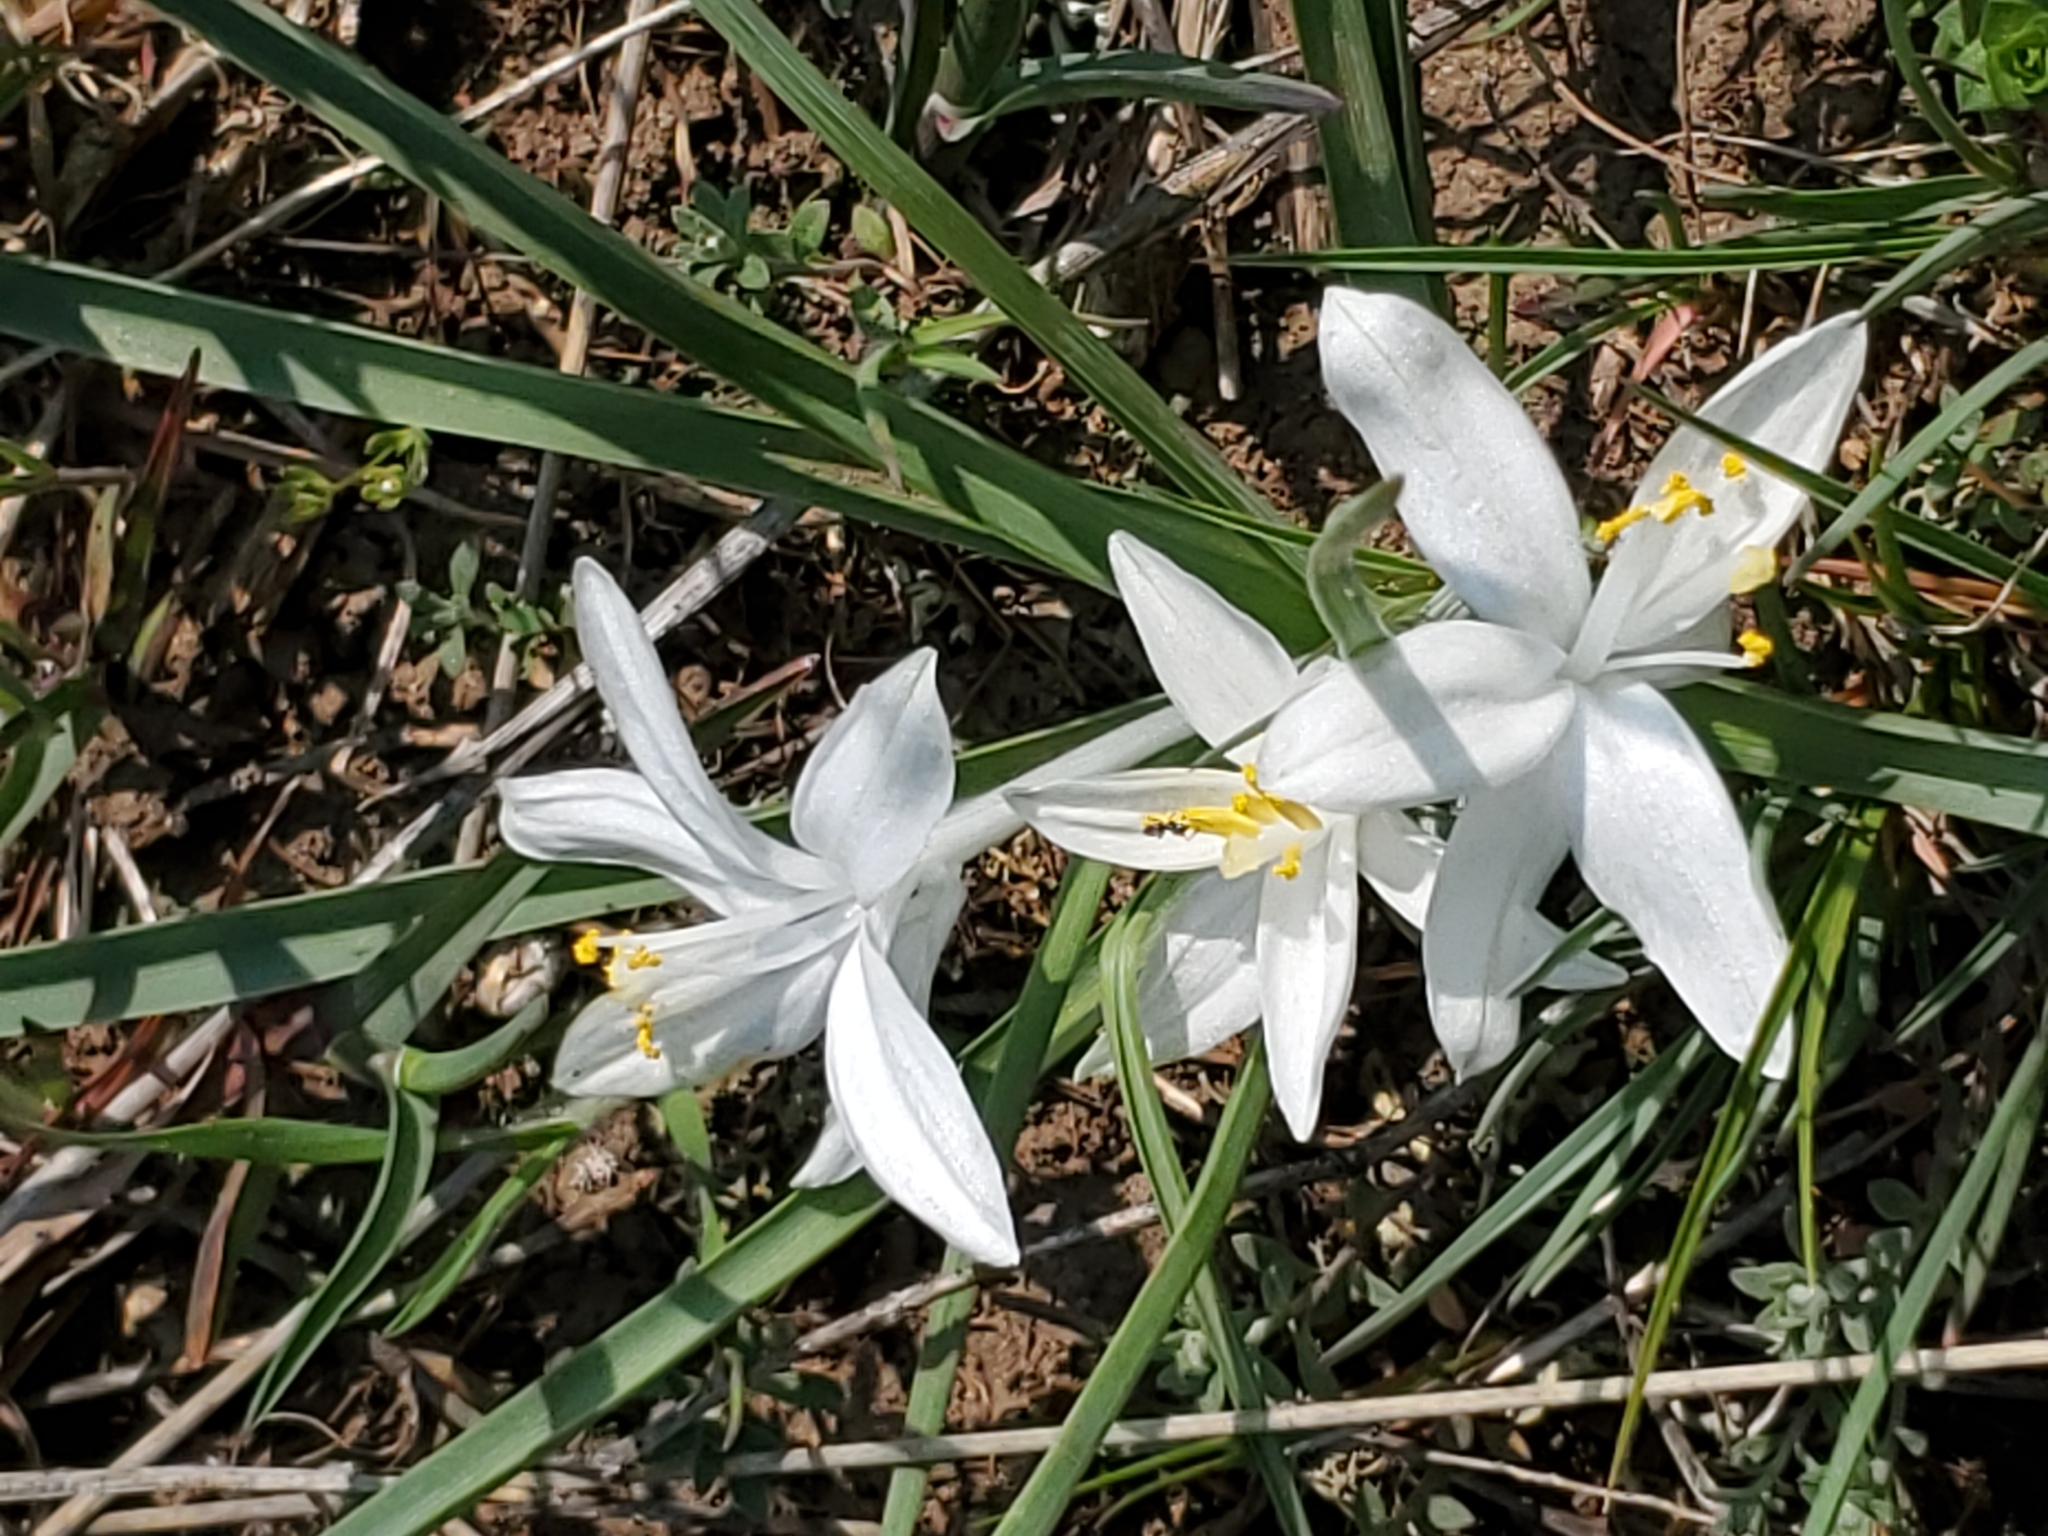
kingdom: Plantae
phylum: Tracheophyta
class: Liliopsida
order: Asparagales
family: Asparagaceae
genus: Leucocrinum
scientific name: Leucocrinum montanum
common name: Mountain-lily
